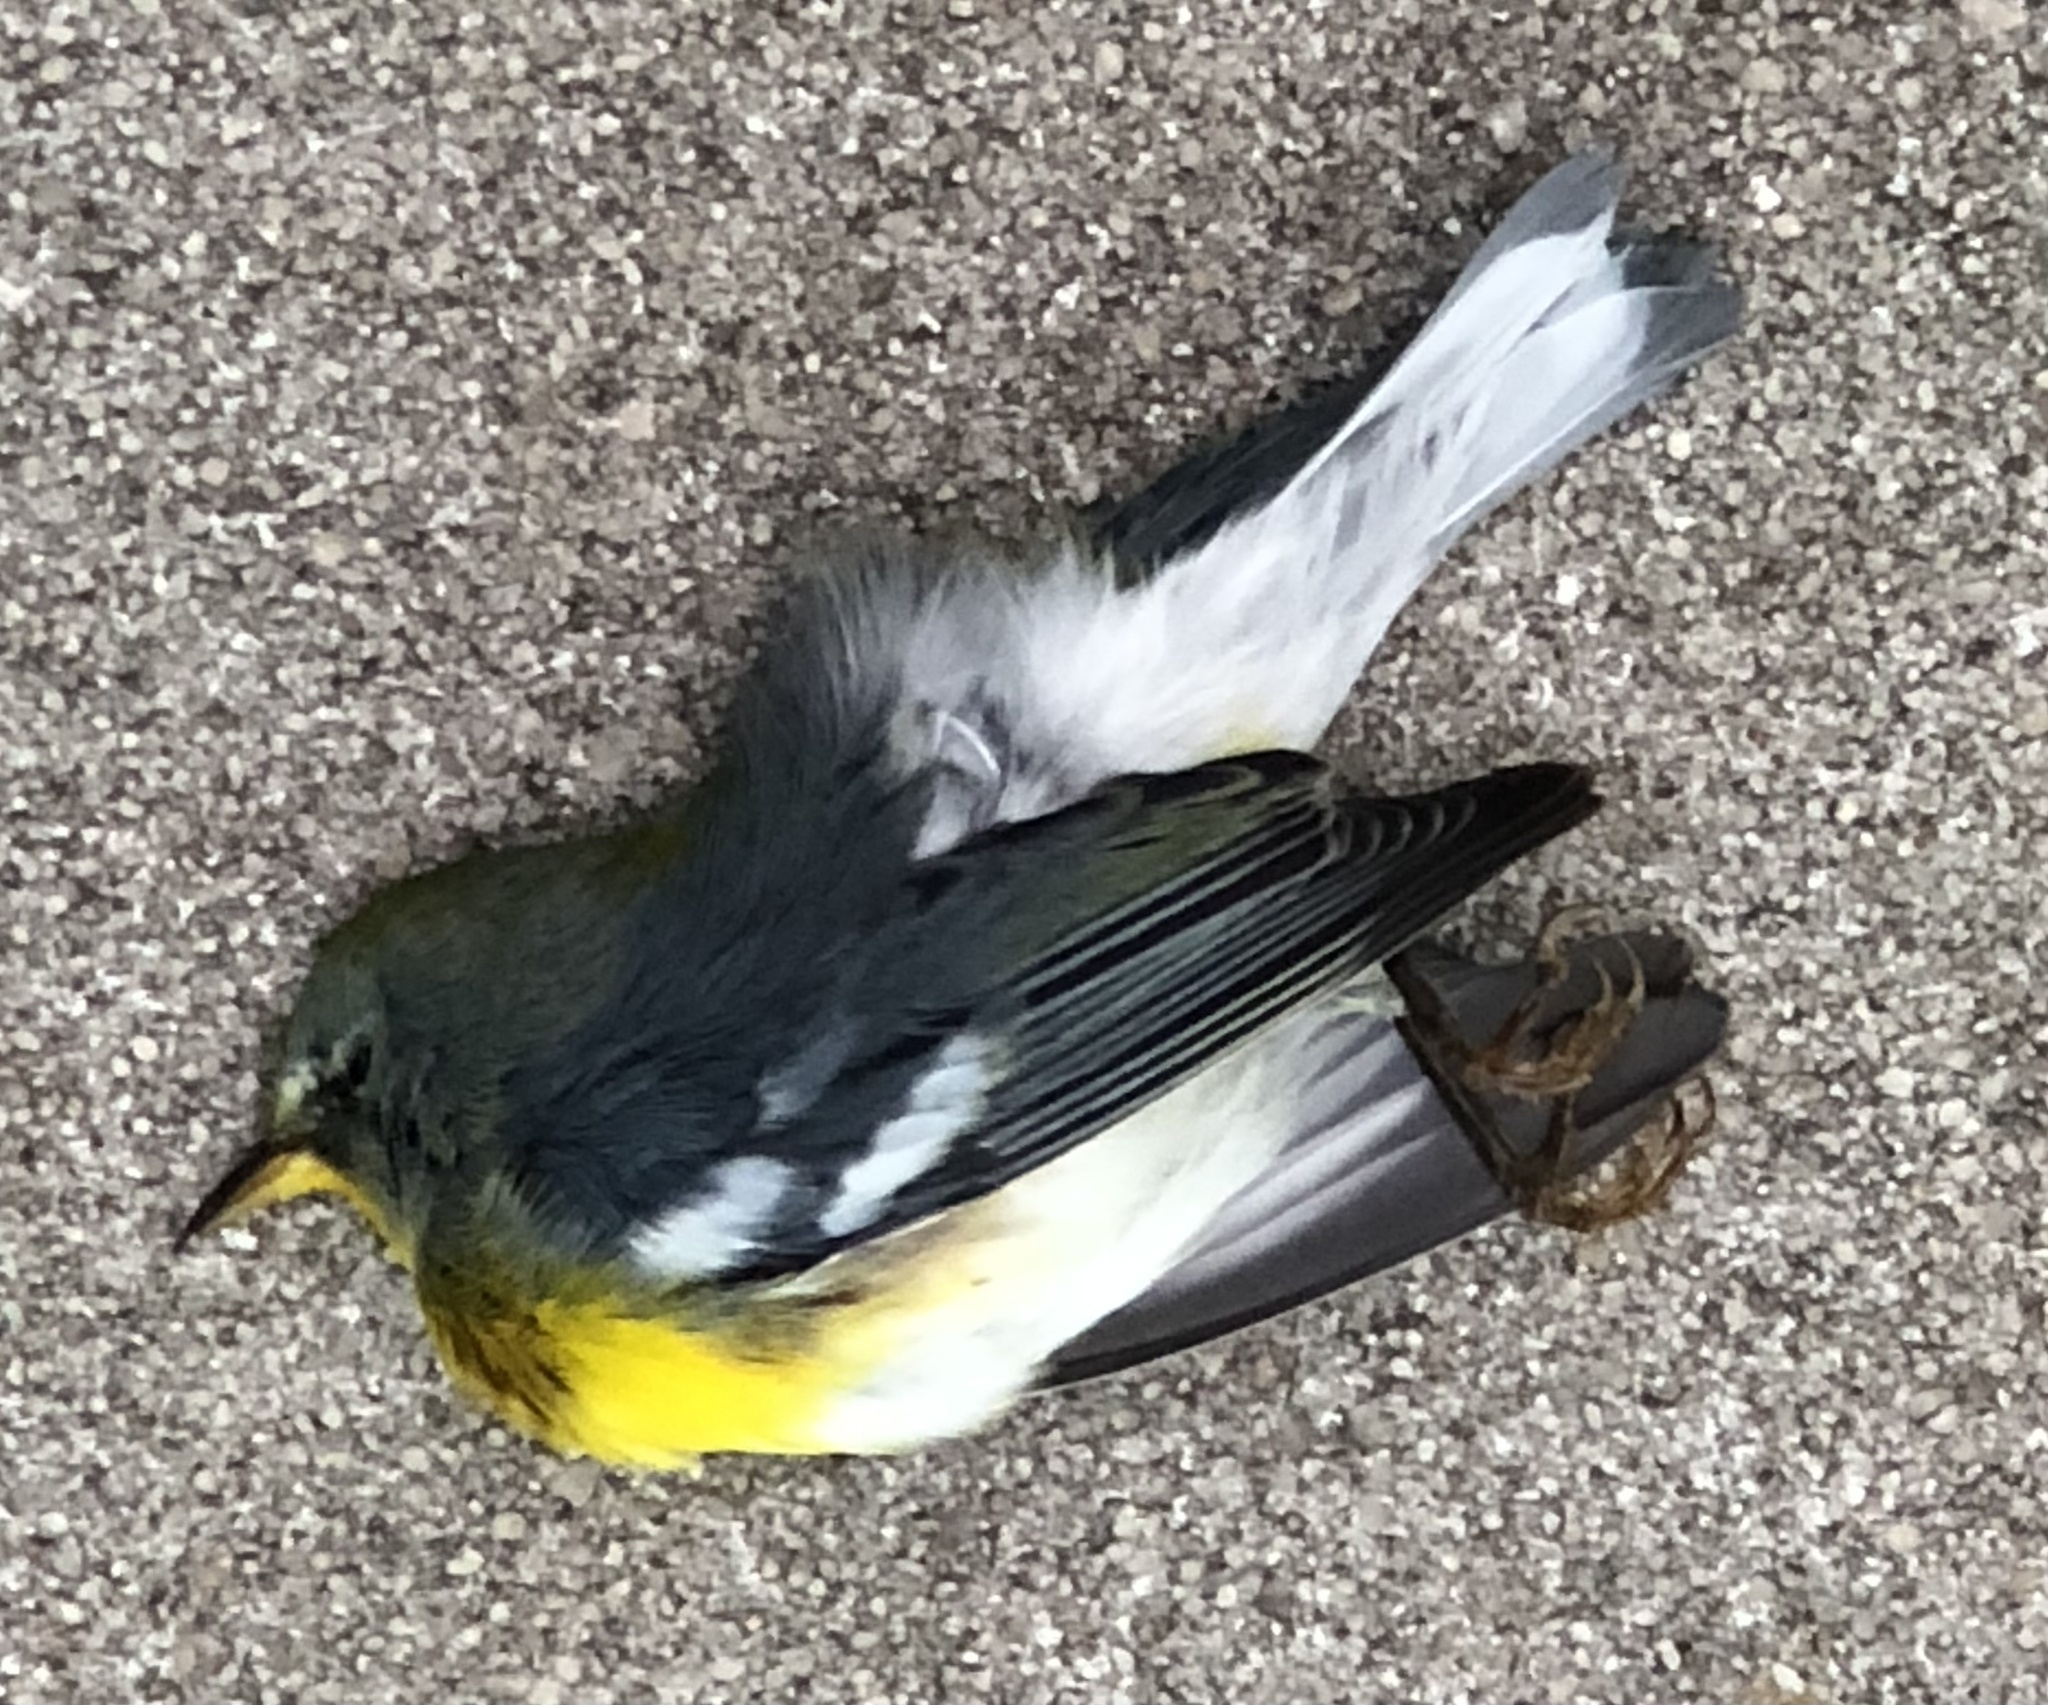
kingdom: Animalia
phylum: Chordata
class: Aves
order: Passeriformes
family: Parulidae
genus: Setophaga
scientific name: Setophaga americana
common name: Northern parula
